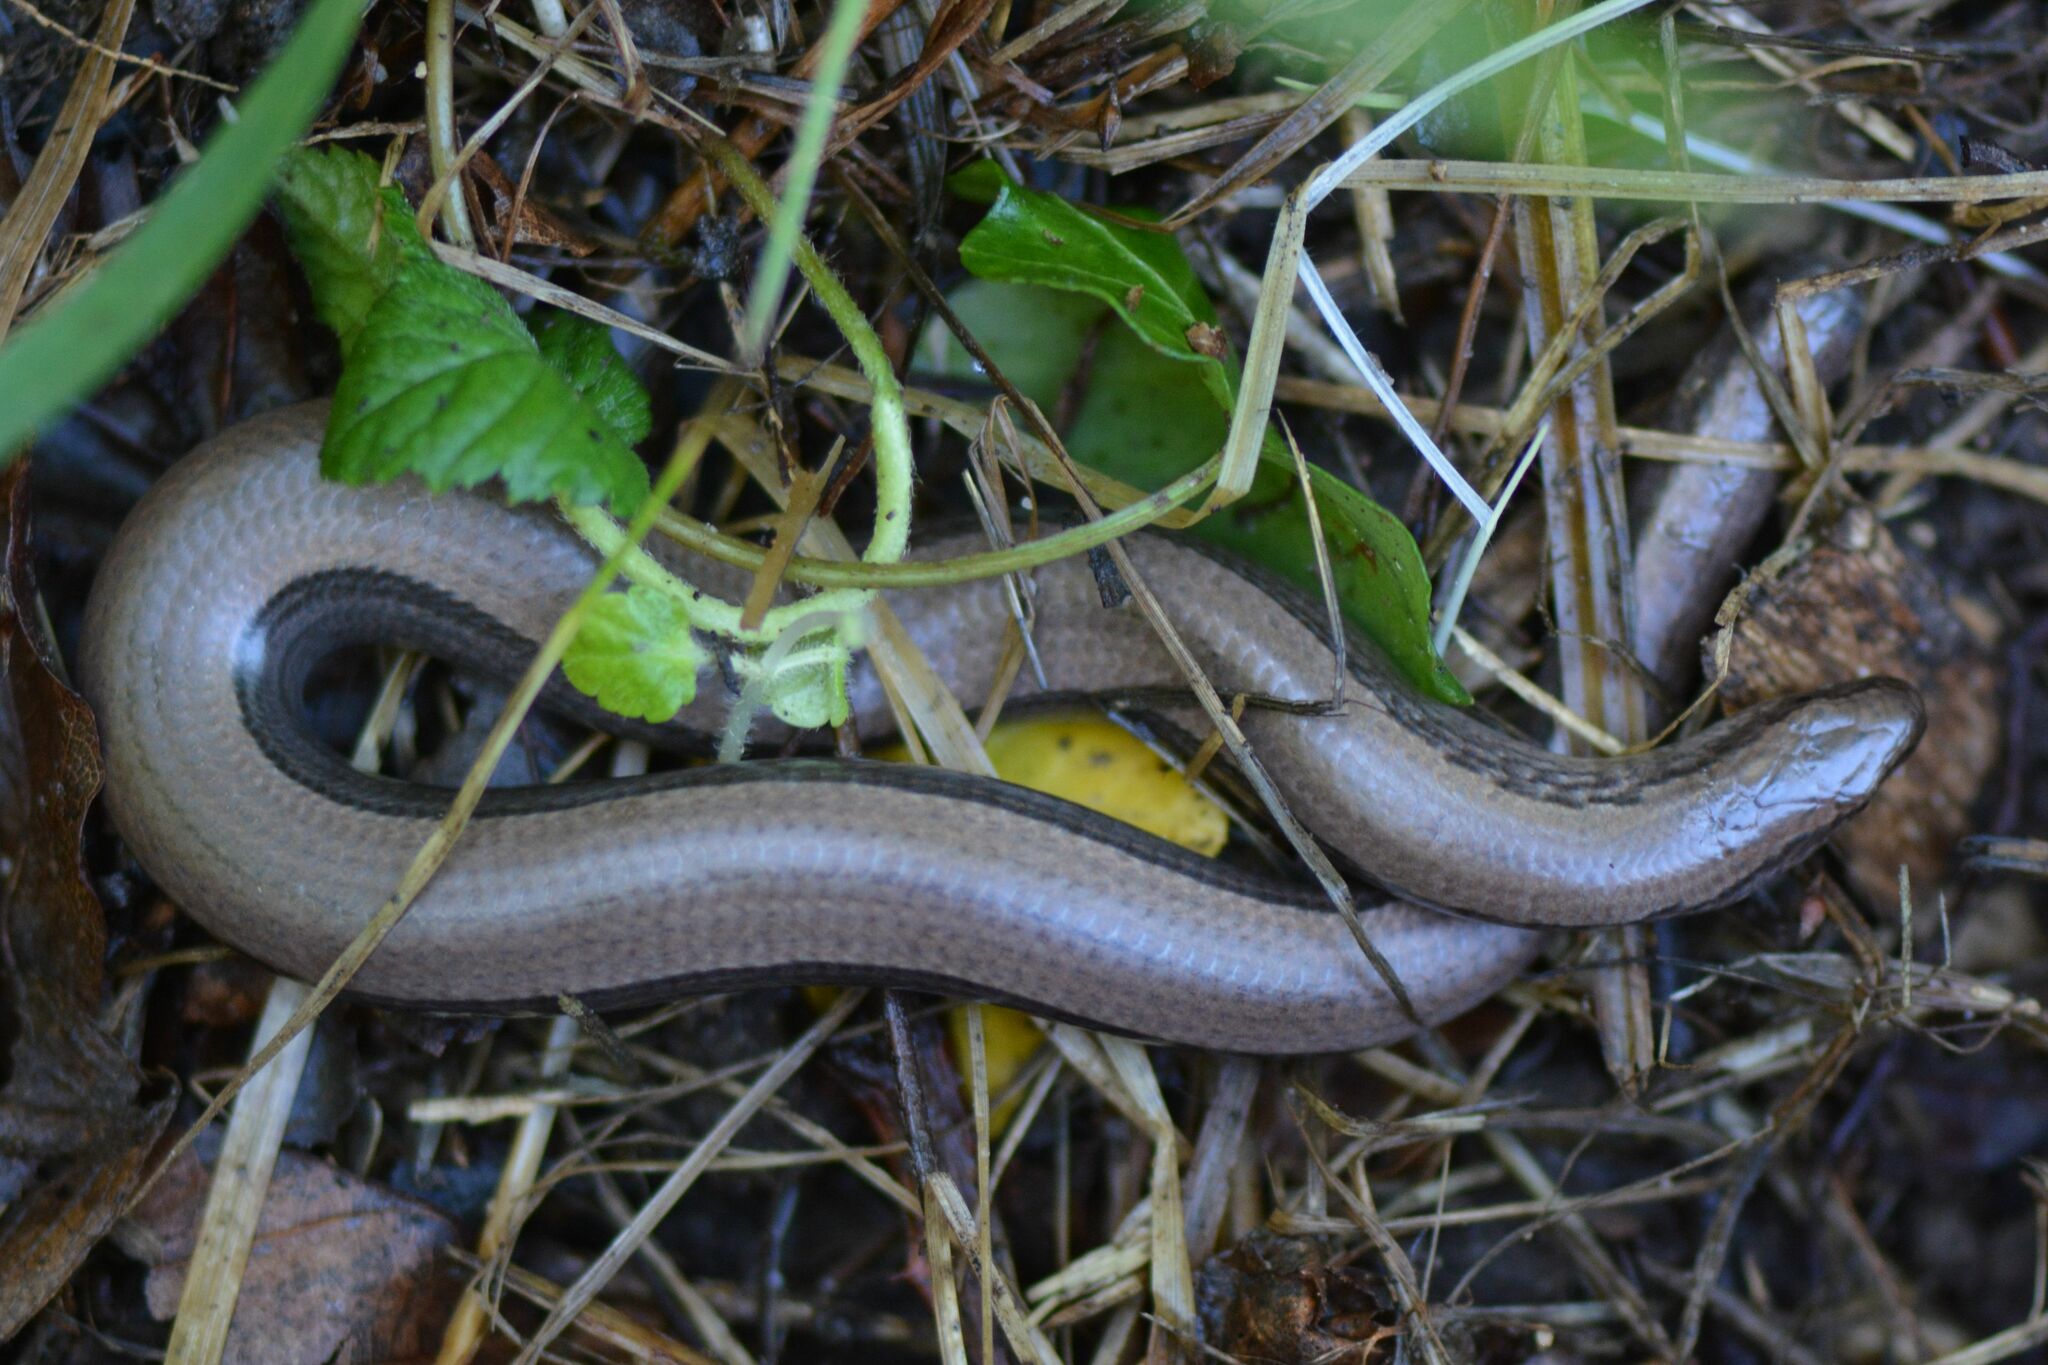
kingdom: Animalia
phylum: Chordata
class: Squamata
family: Anguidae
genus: Anguis
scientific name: Anguis fragilis
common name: Slow worm
